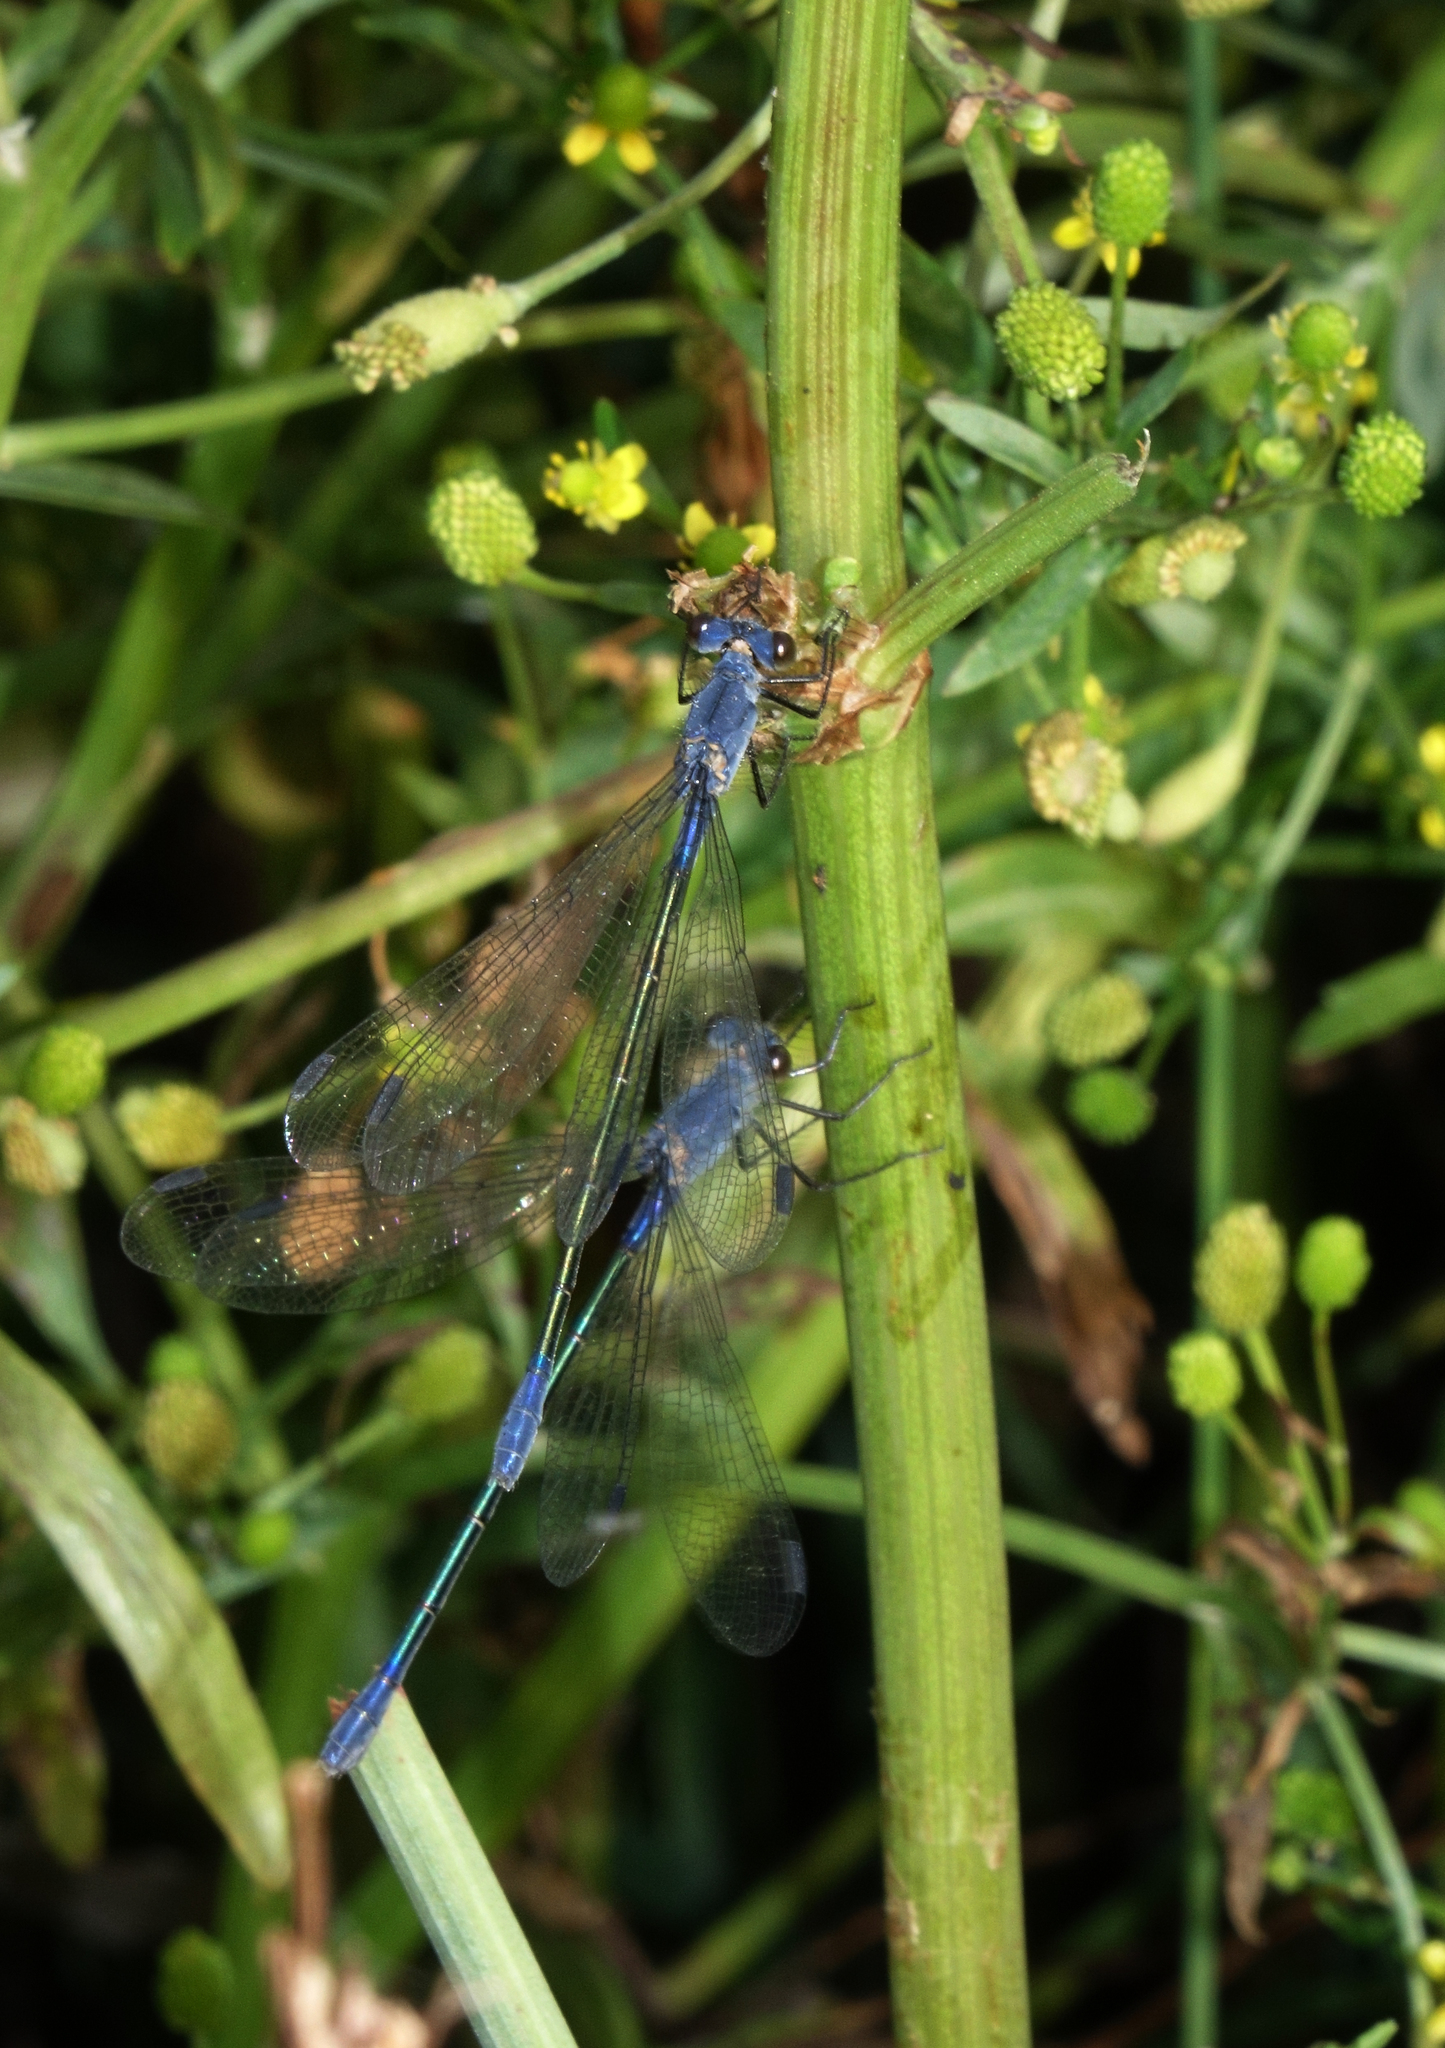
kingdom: Animalia
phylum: Arthropoda
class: Insecta
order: Odonata
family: Lestidae
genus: Lestes
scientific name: Lestes macrostigma
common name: Dark spreadwing
